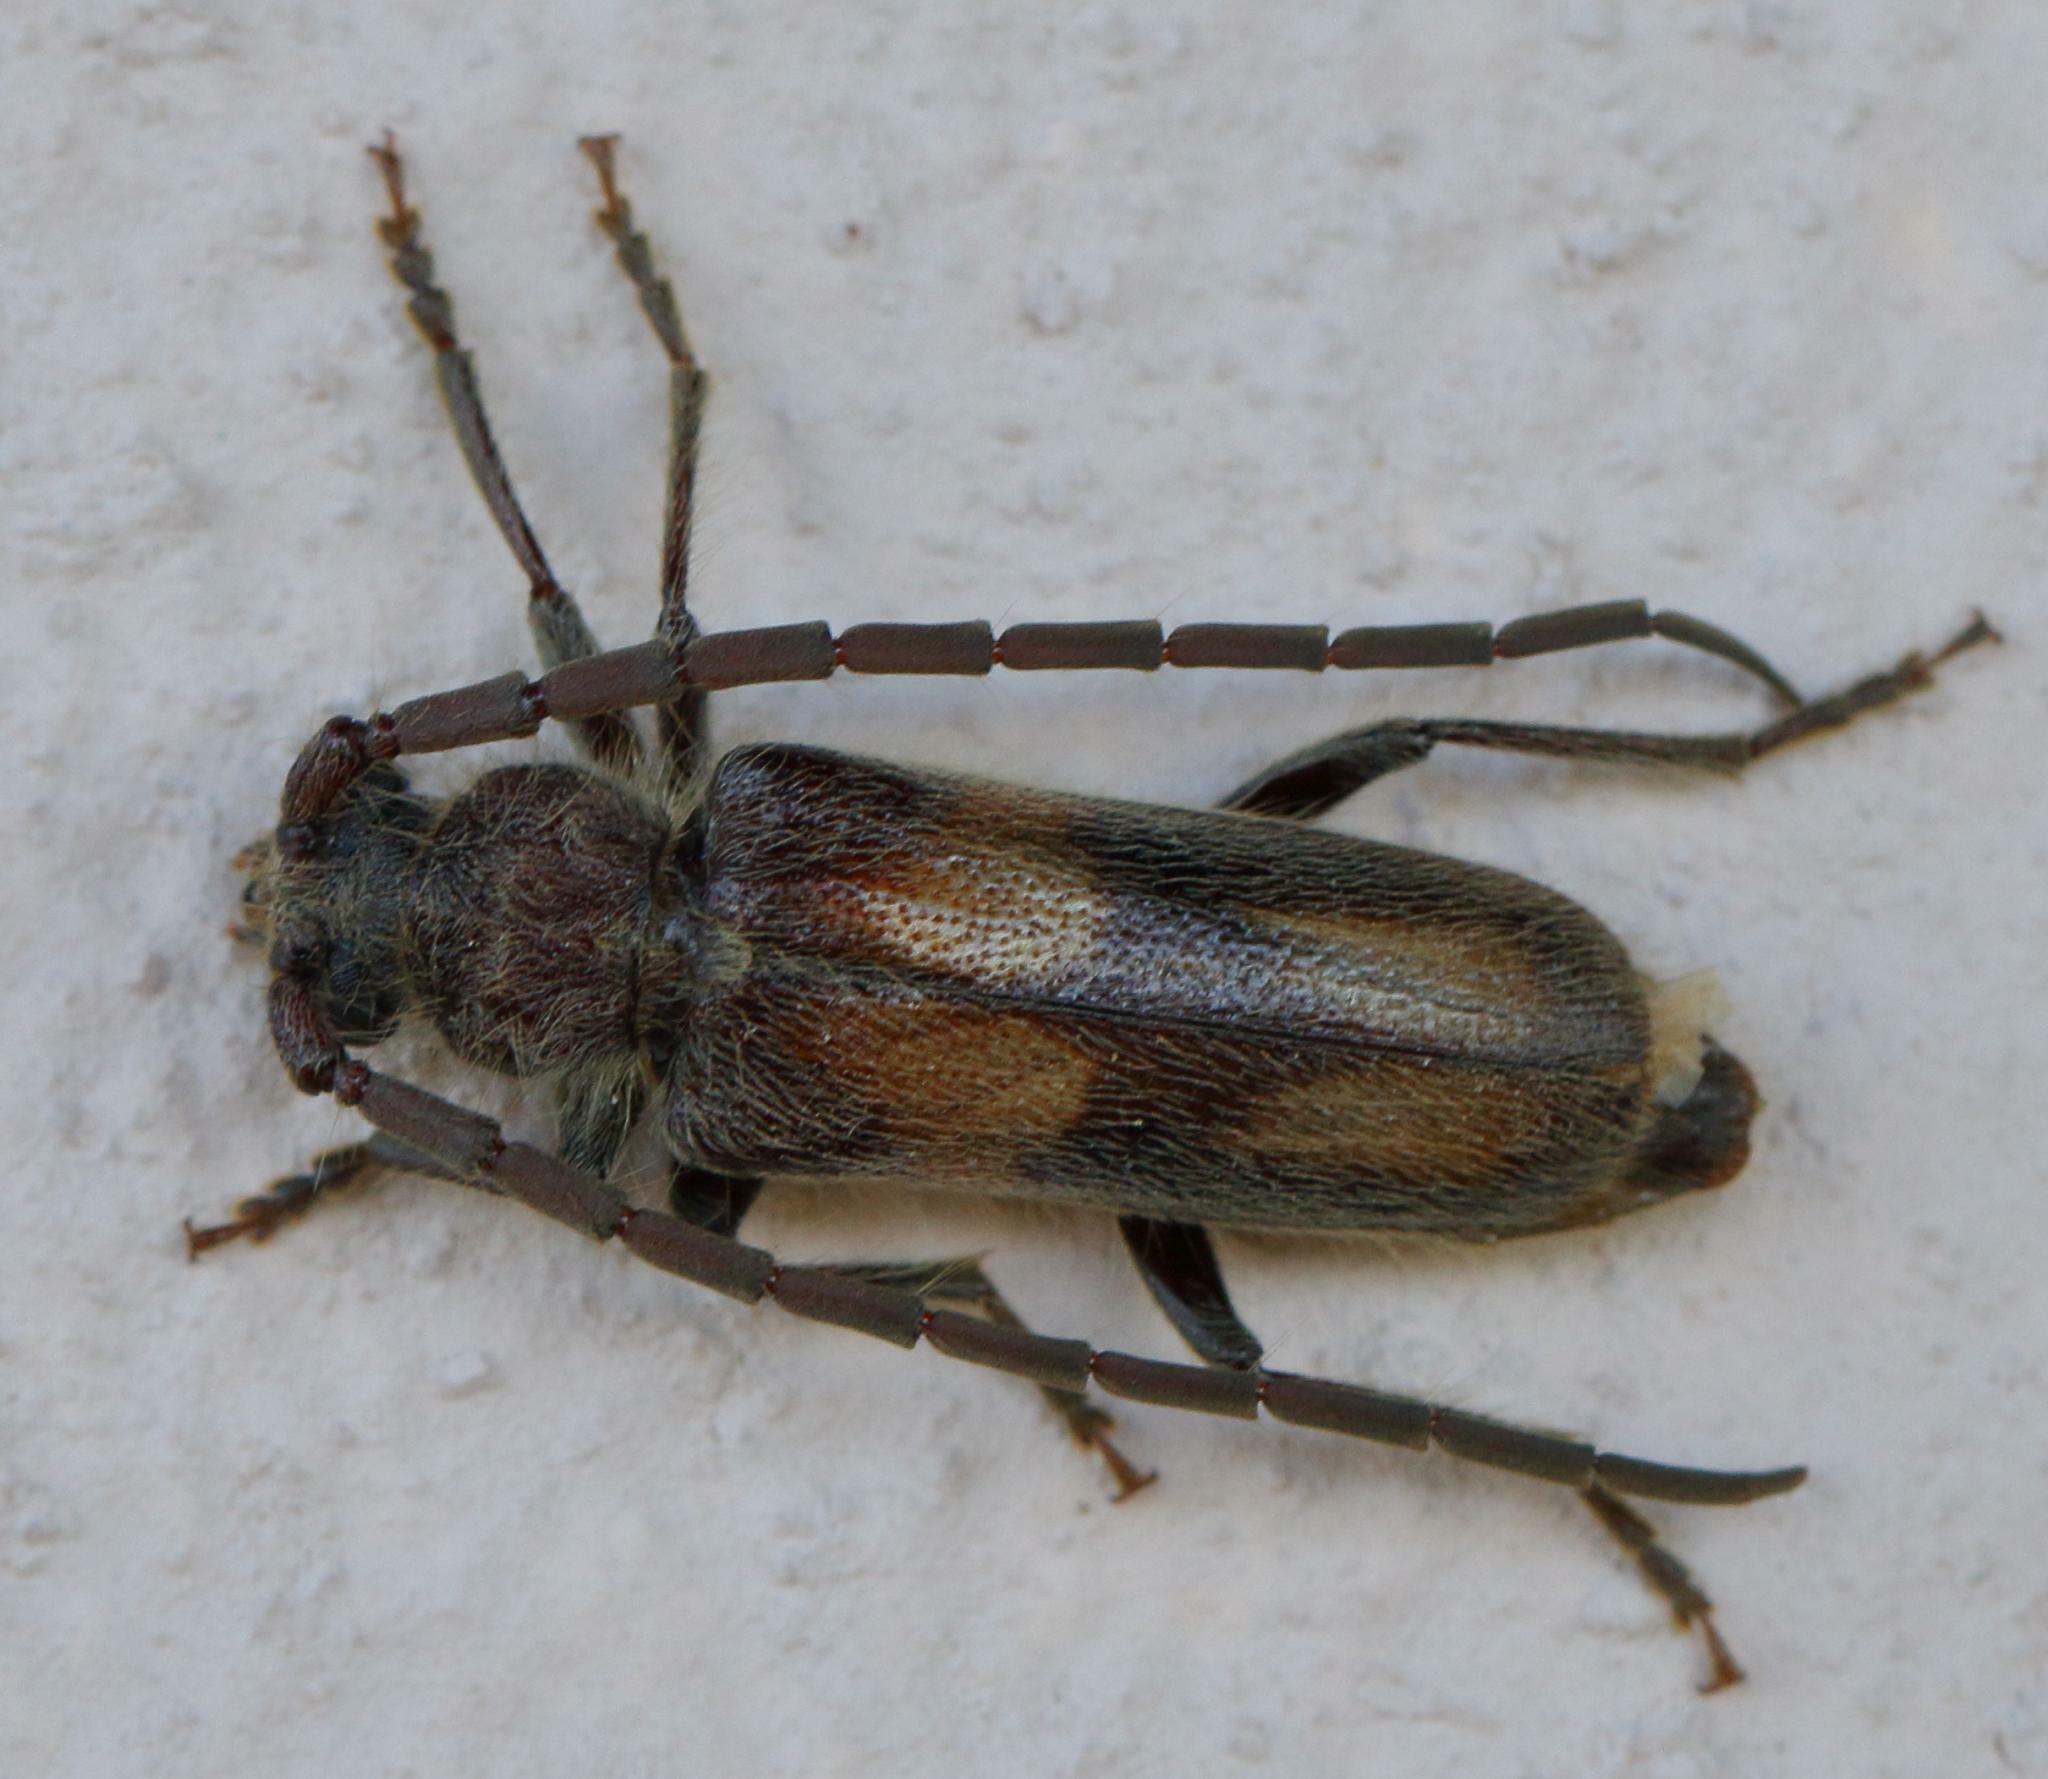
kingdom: Animalia
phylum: Arthropoda
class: Insecta
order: Coleoptera
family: Cerambycidae
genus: Crinarnoldius
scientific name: Crinarnoldius maculatus
